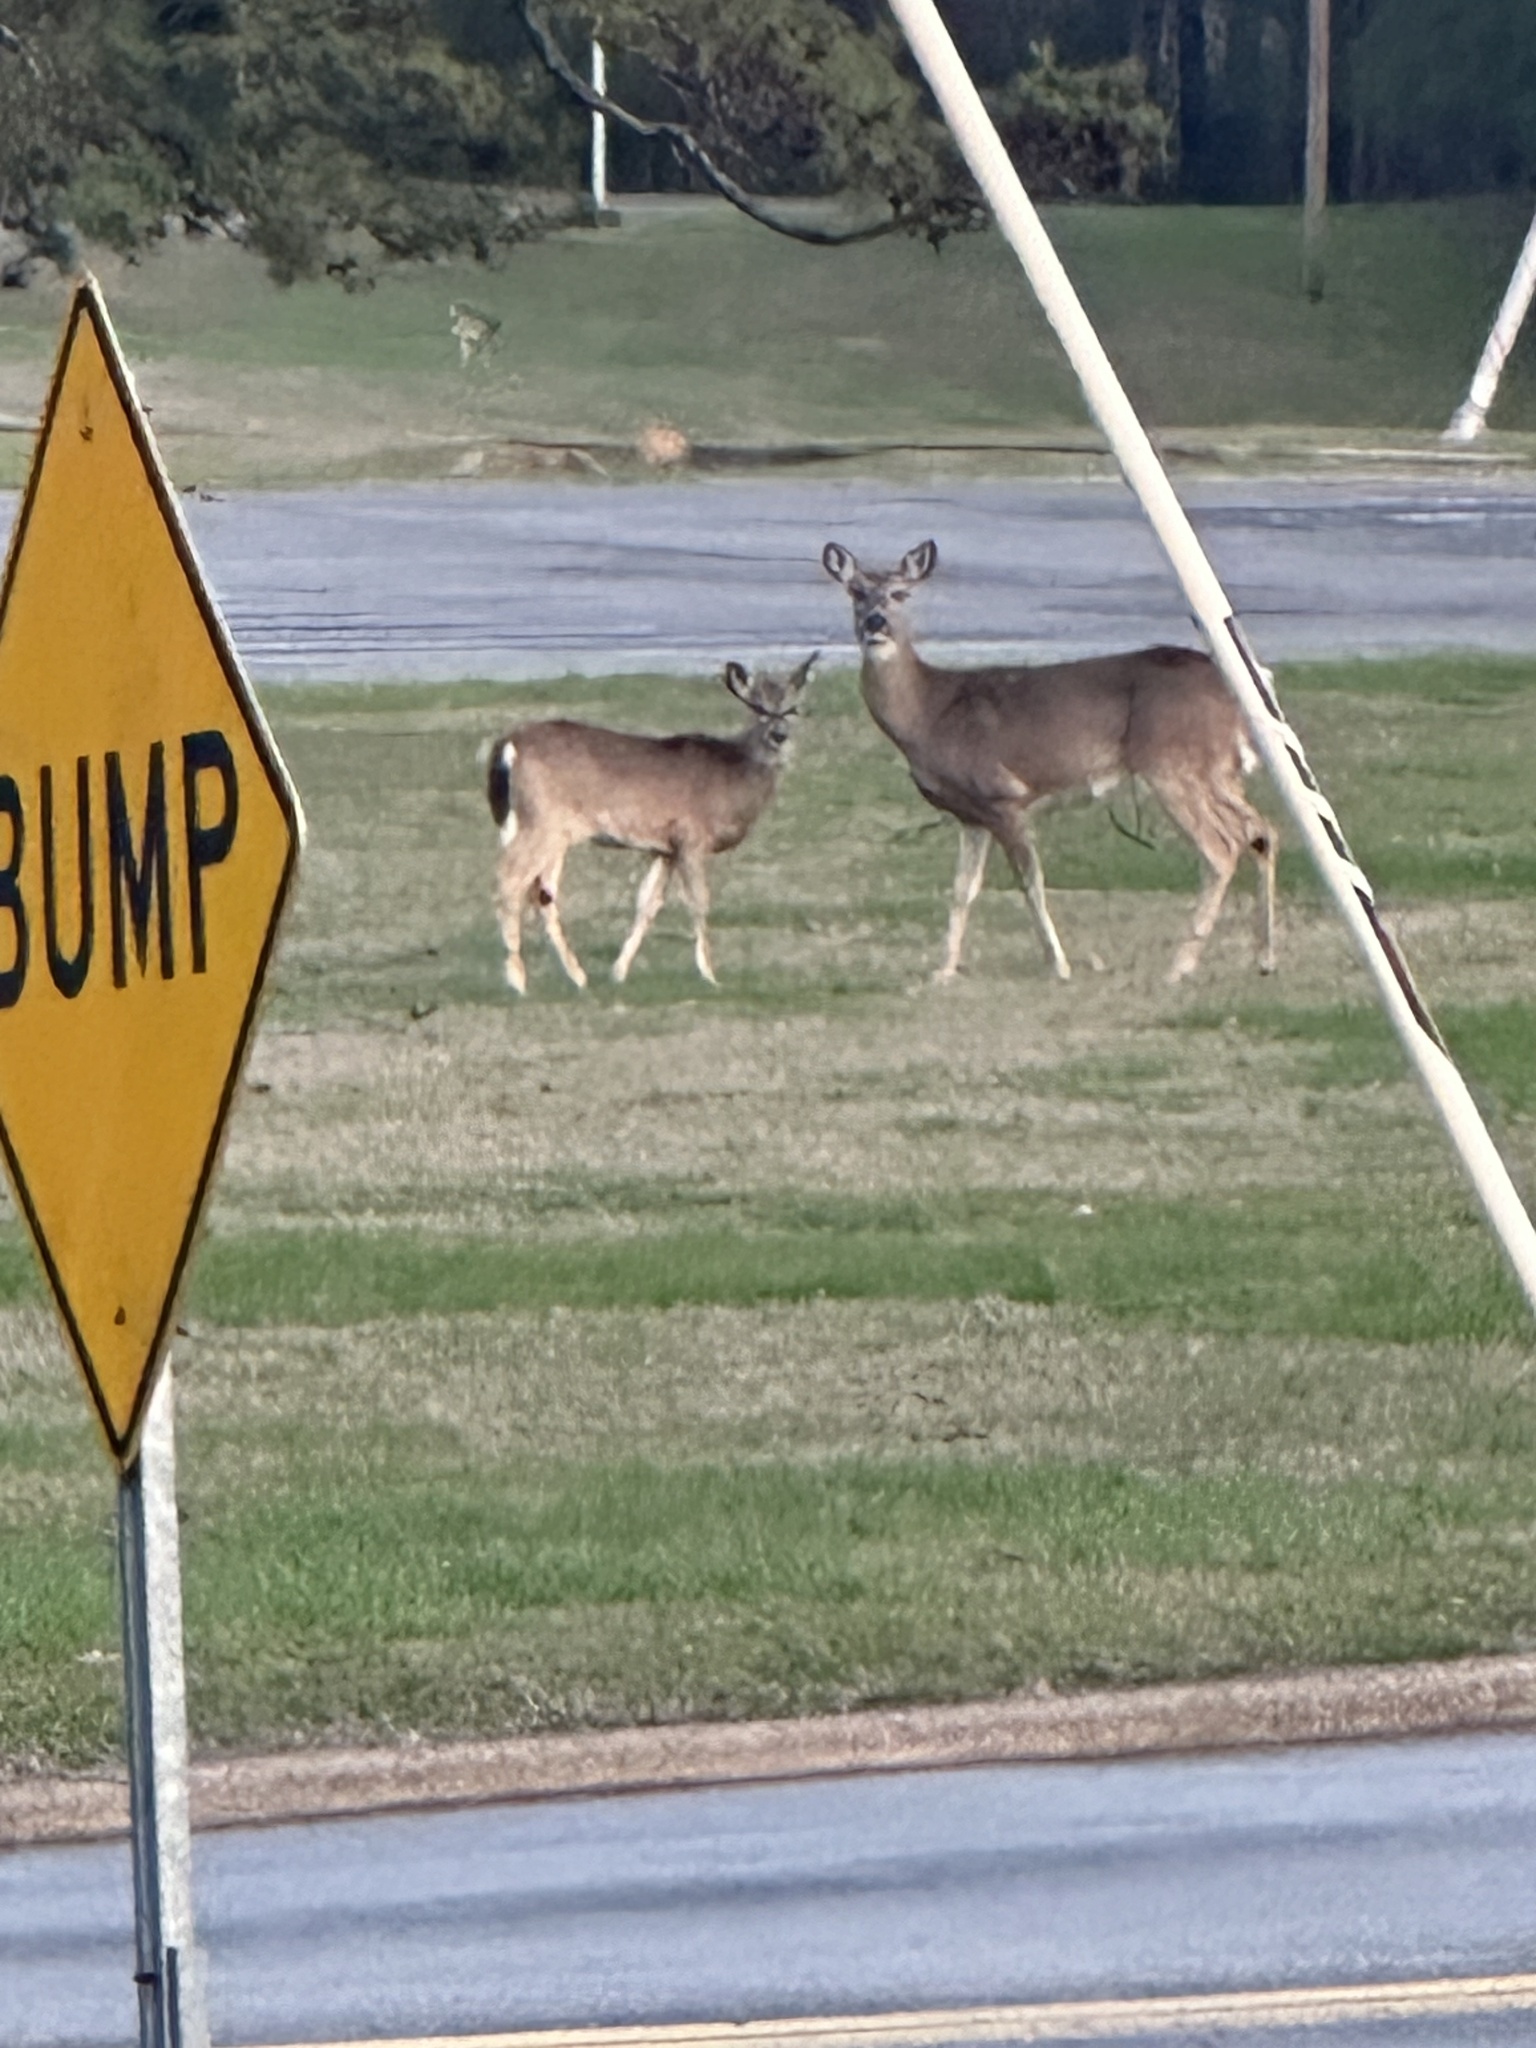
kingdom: Animalia
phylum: Chordata
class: Mammalia
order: Artiodactyla
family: Cervidae
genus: Odocoileus
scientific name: Odocoileus virginianus
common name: White-tailed deer
